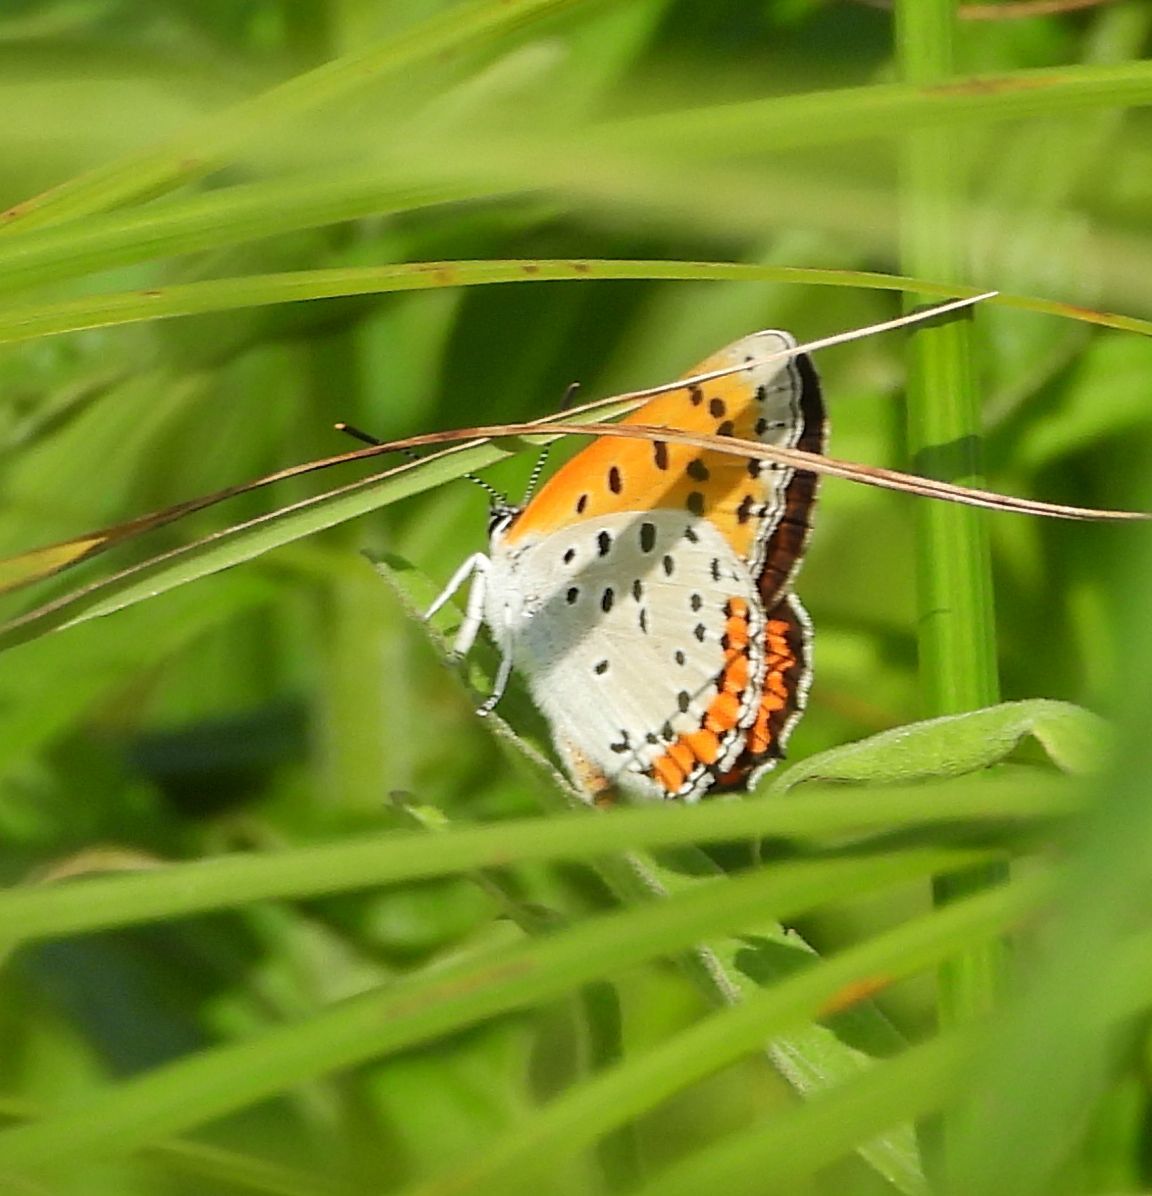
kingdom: Animalia
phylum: Arthropoda
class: Insecta
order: Lepidoptera
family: Lycaenidae
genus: Tharsalea
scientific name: Tharsalea hyllus
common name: Bronze copper
